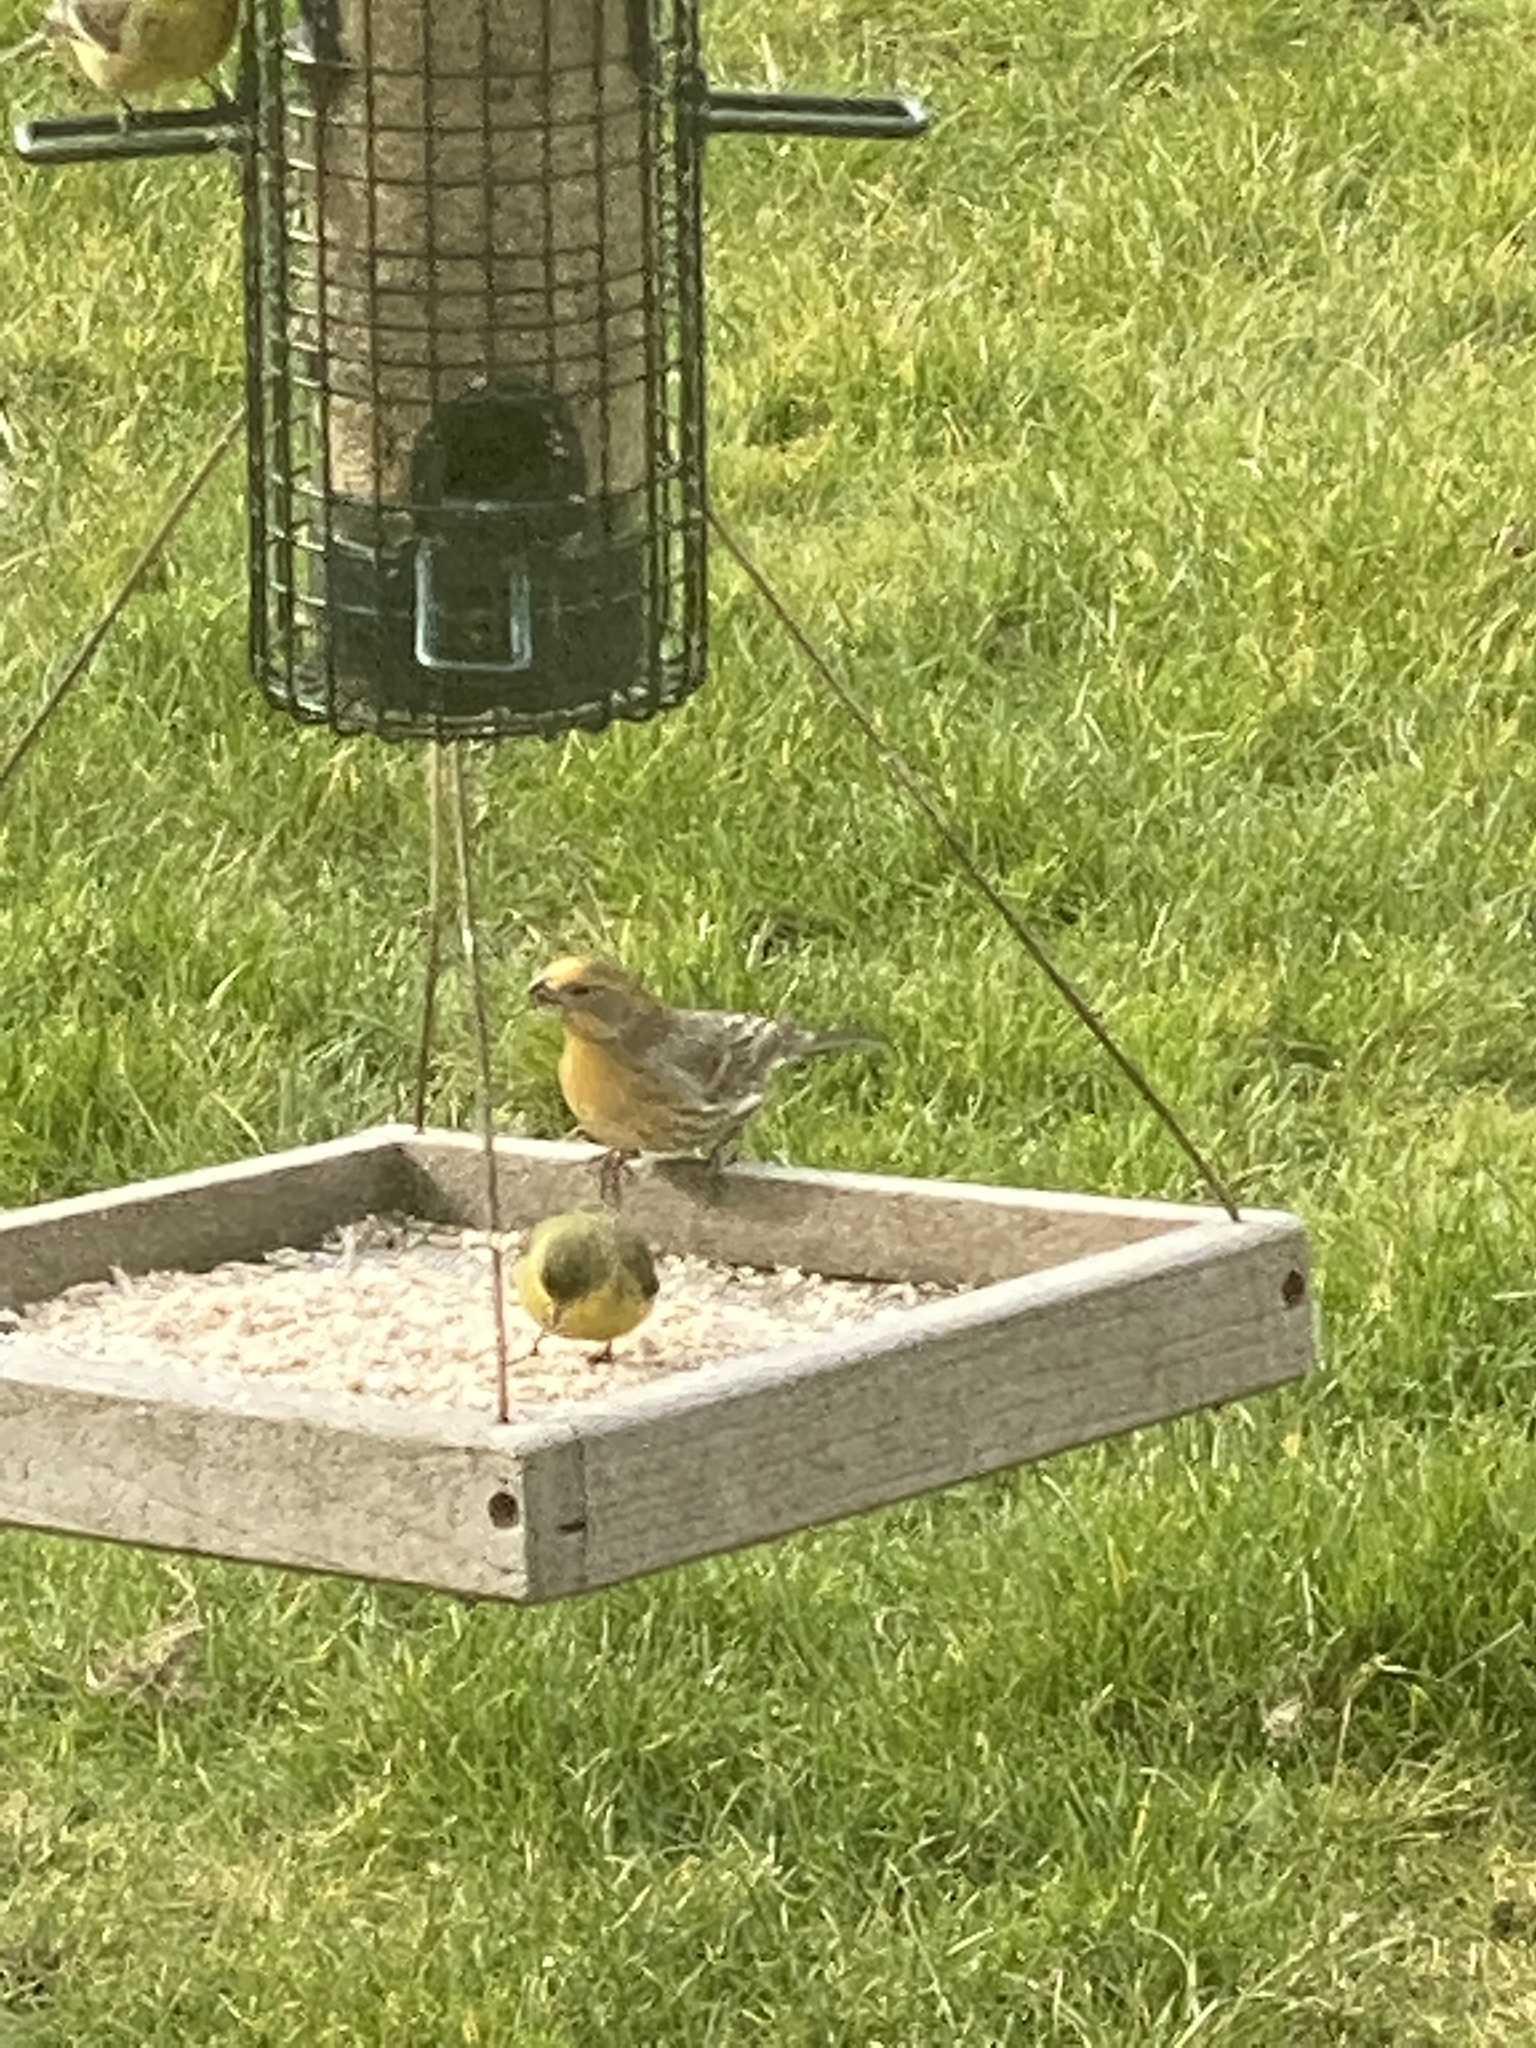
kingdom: Animalia
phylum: Chordata
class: Aves
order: Passeriformes
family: Fringillidae
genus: Haemorhous
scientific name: Haemorhous mexicanus
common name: House finch
